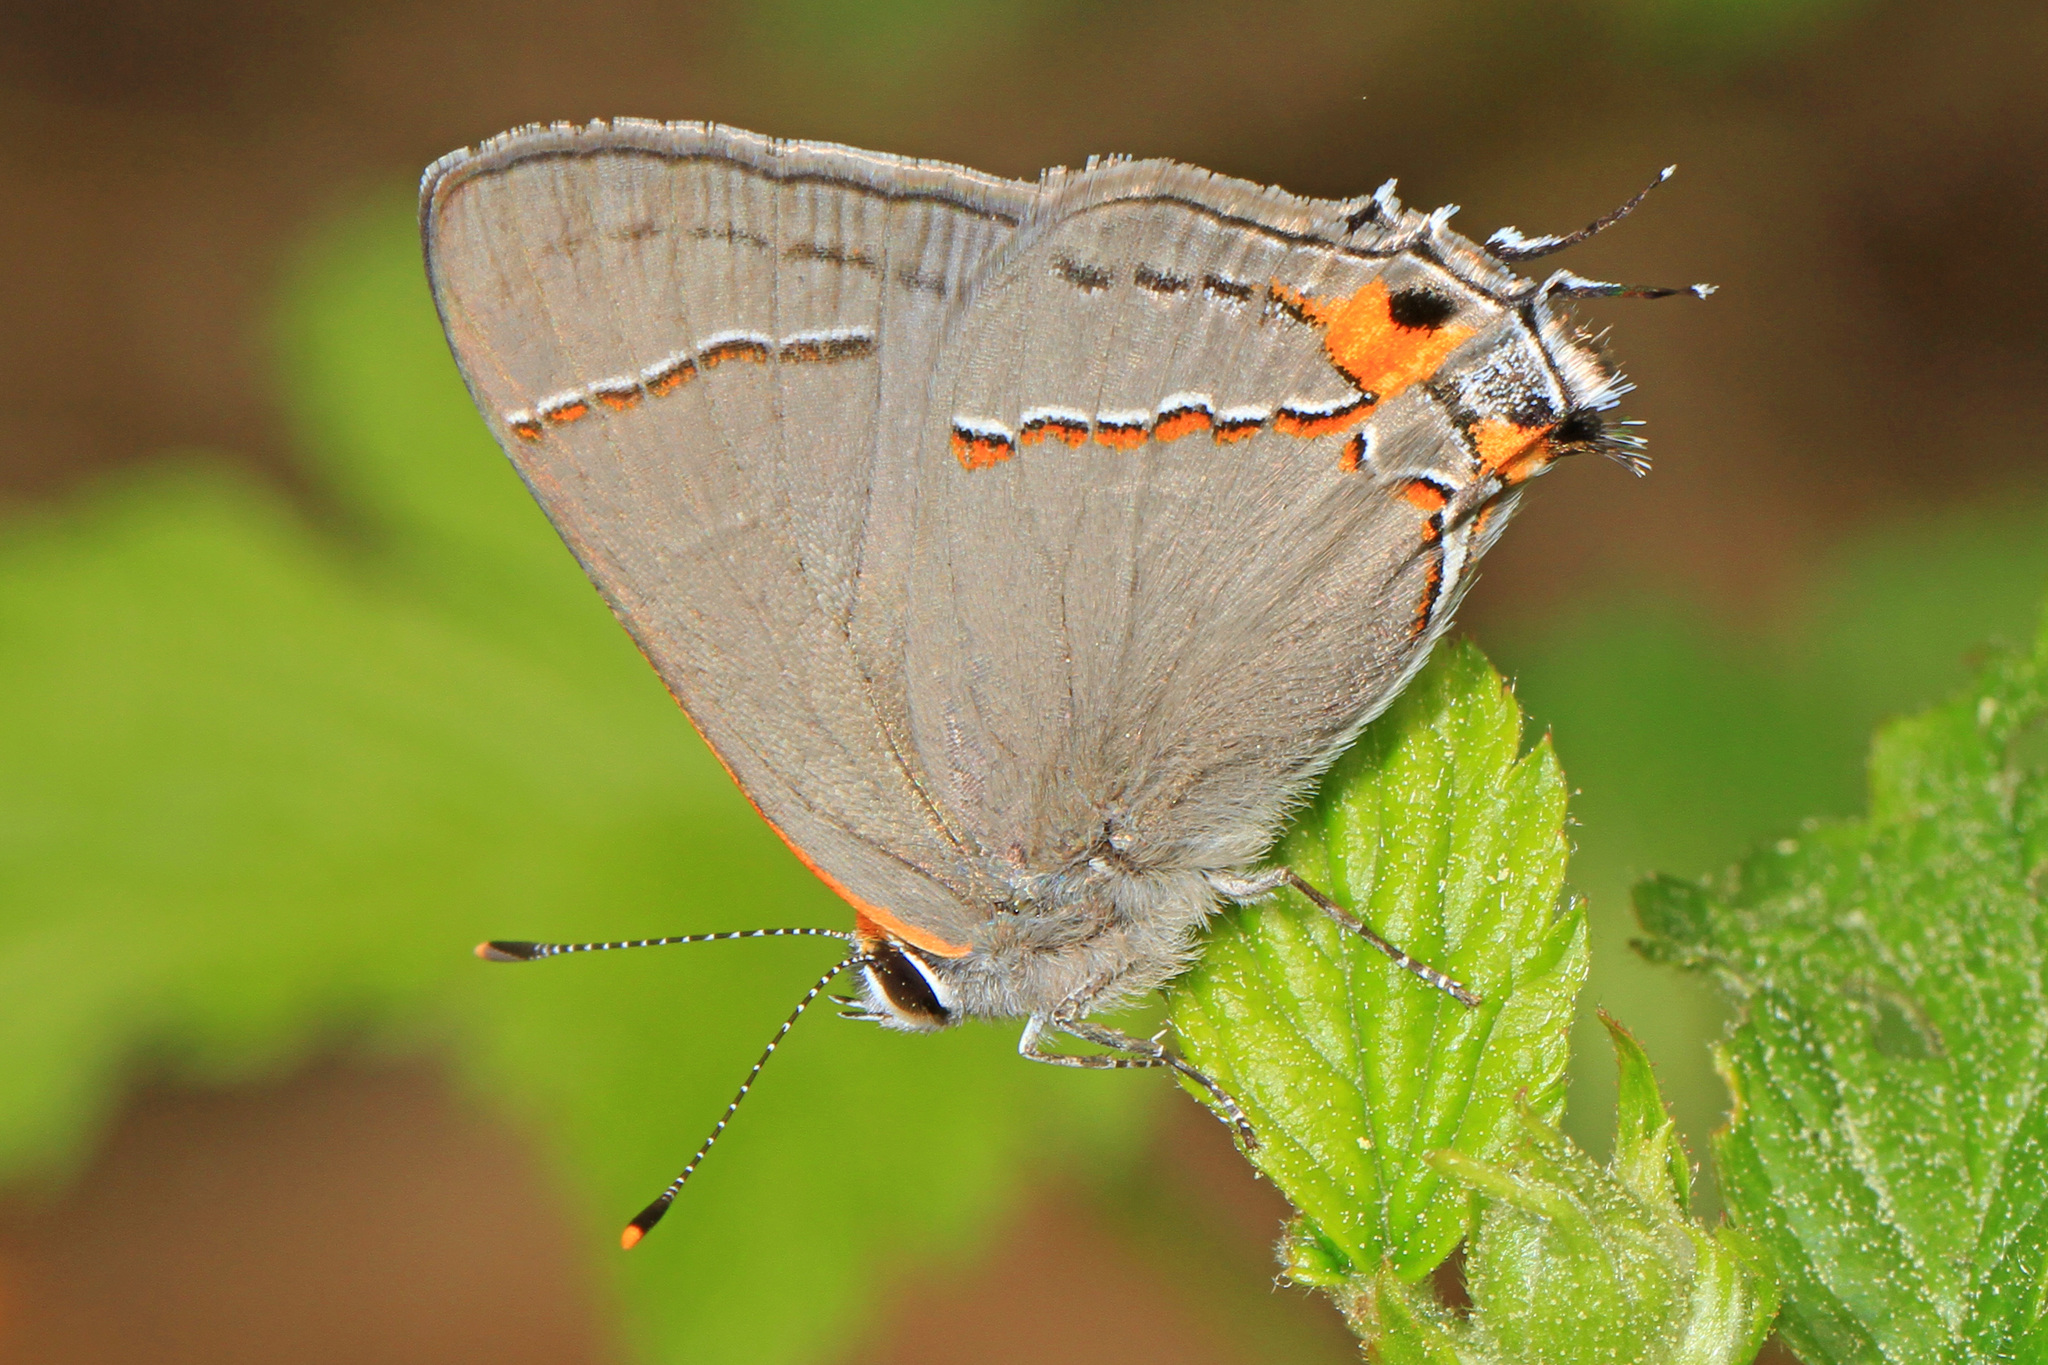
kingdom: Animalia
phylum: Arthropoda
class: Insecta
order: Lepidoptera
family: Lycaenidae
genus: Strymon
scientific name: Strymon melinus
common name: Gray hairstreak
